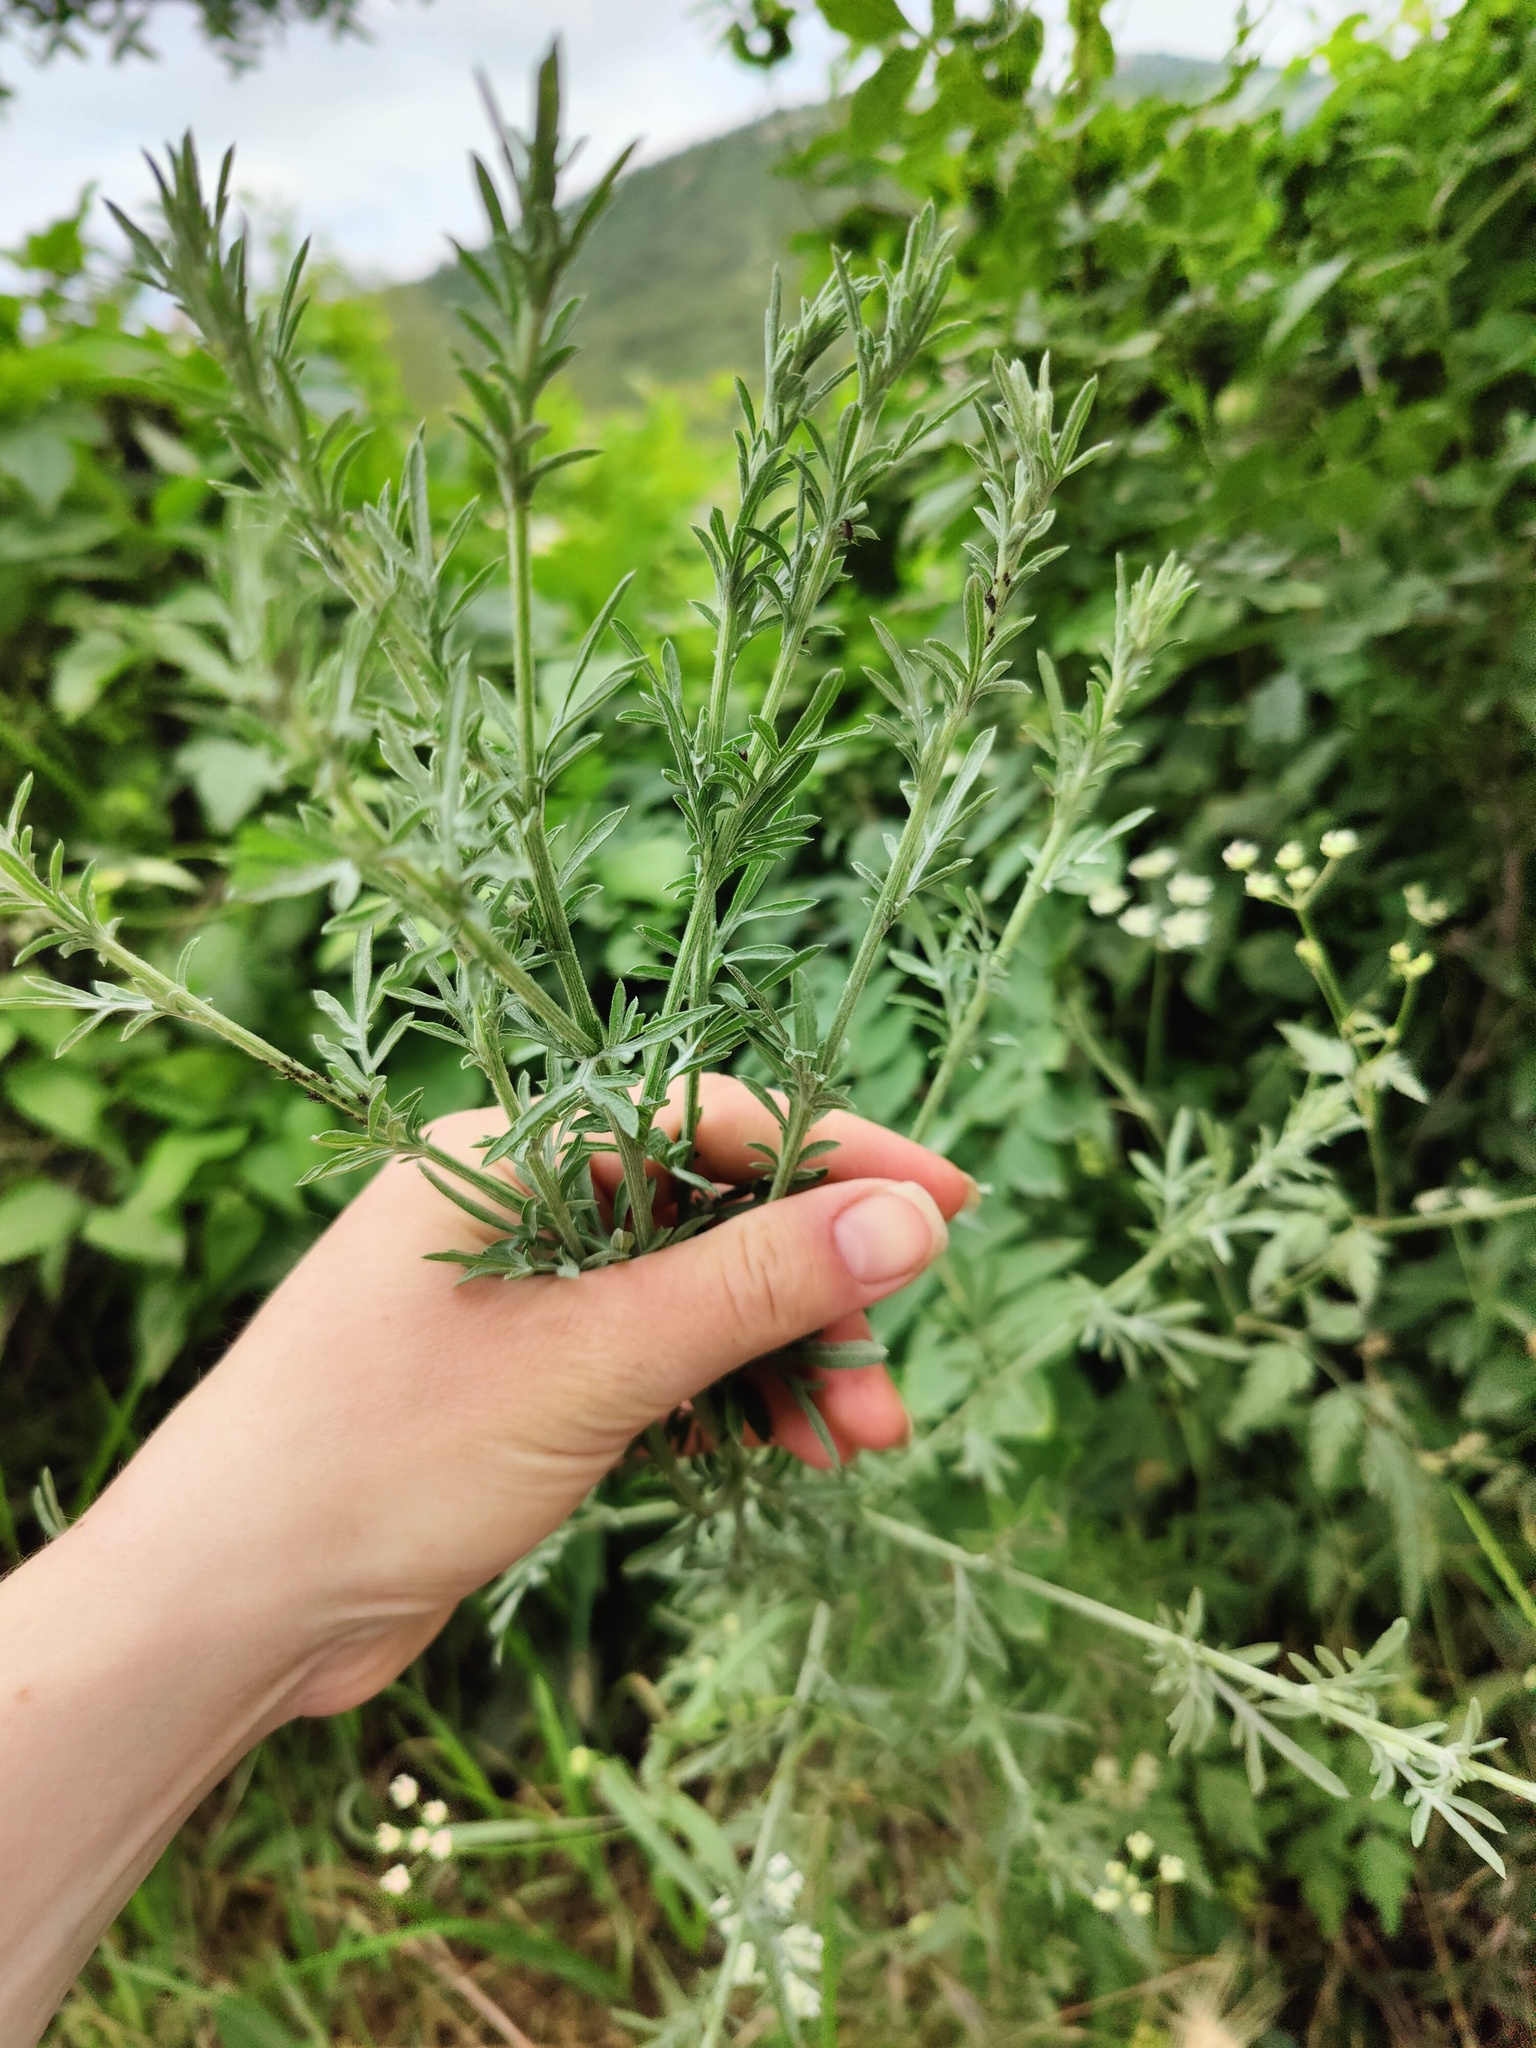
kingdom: Plantae
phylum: Tracheophyta
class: Magnoliopsida
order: Asterales
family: Asteraceae
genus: Centaurea
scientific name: Centaurea diffusa
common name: Diffuse knapweed
